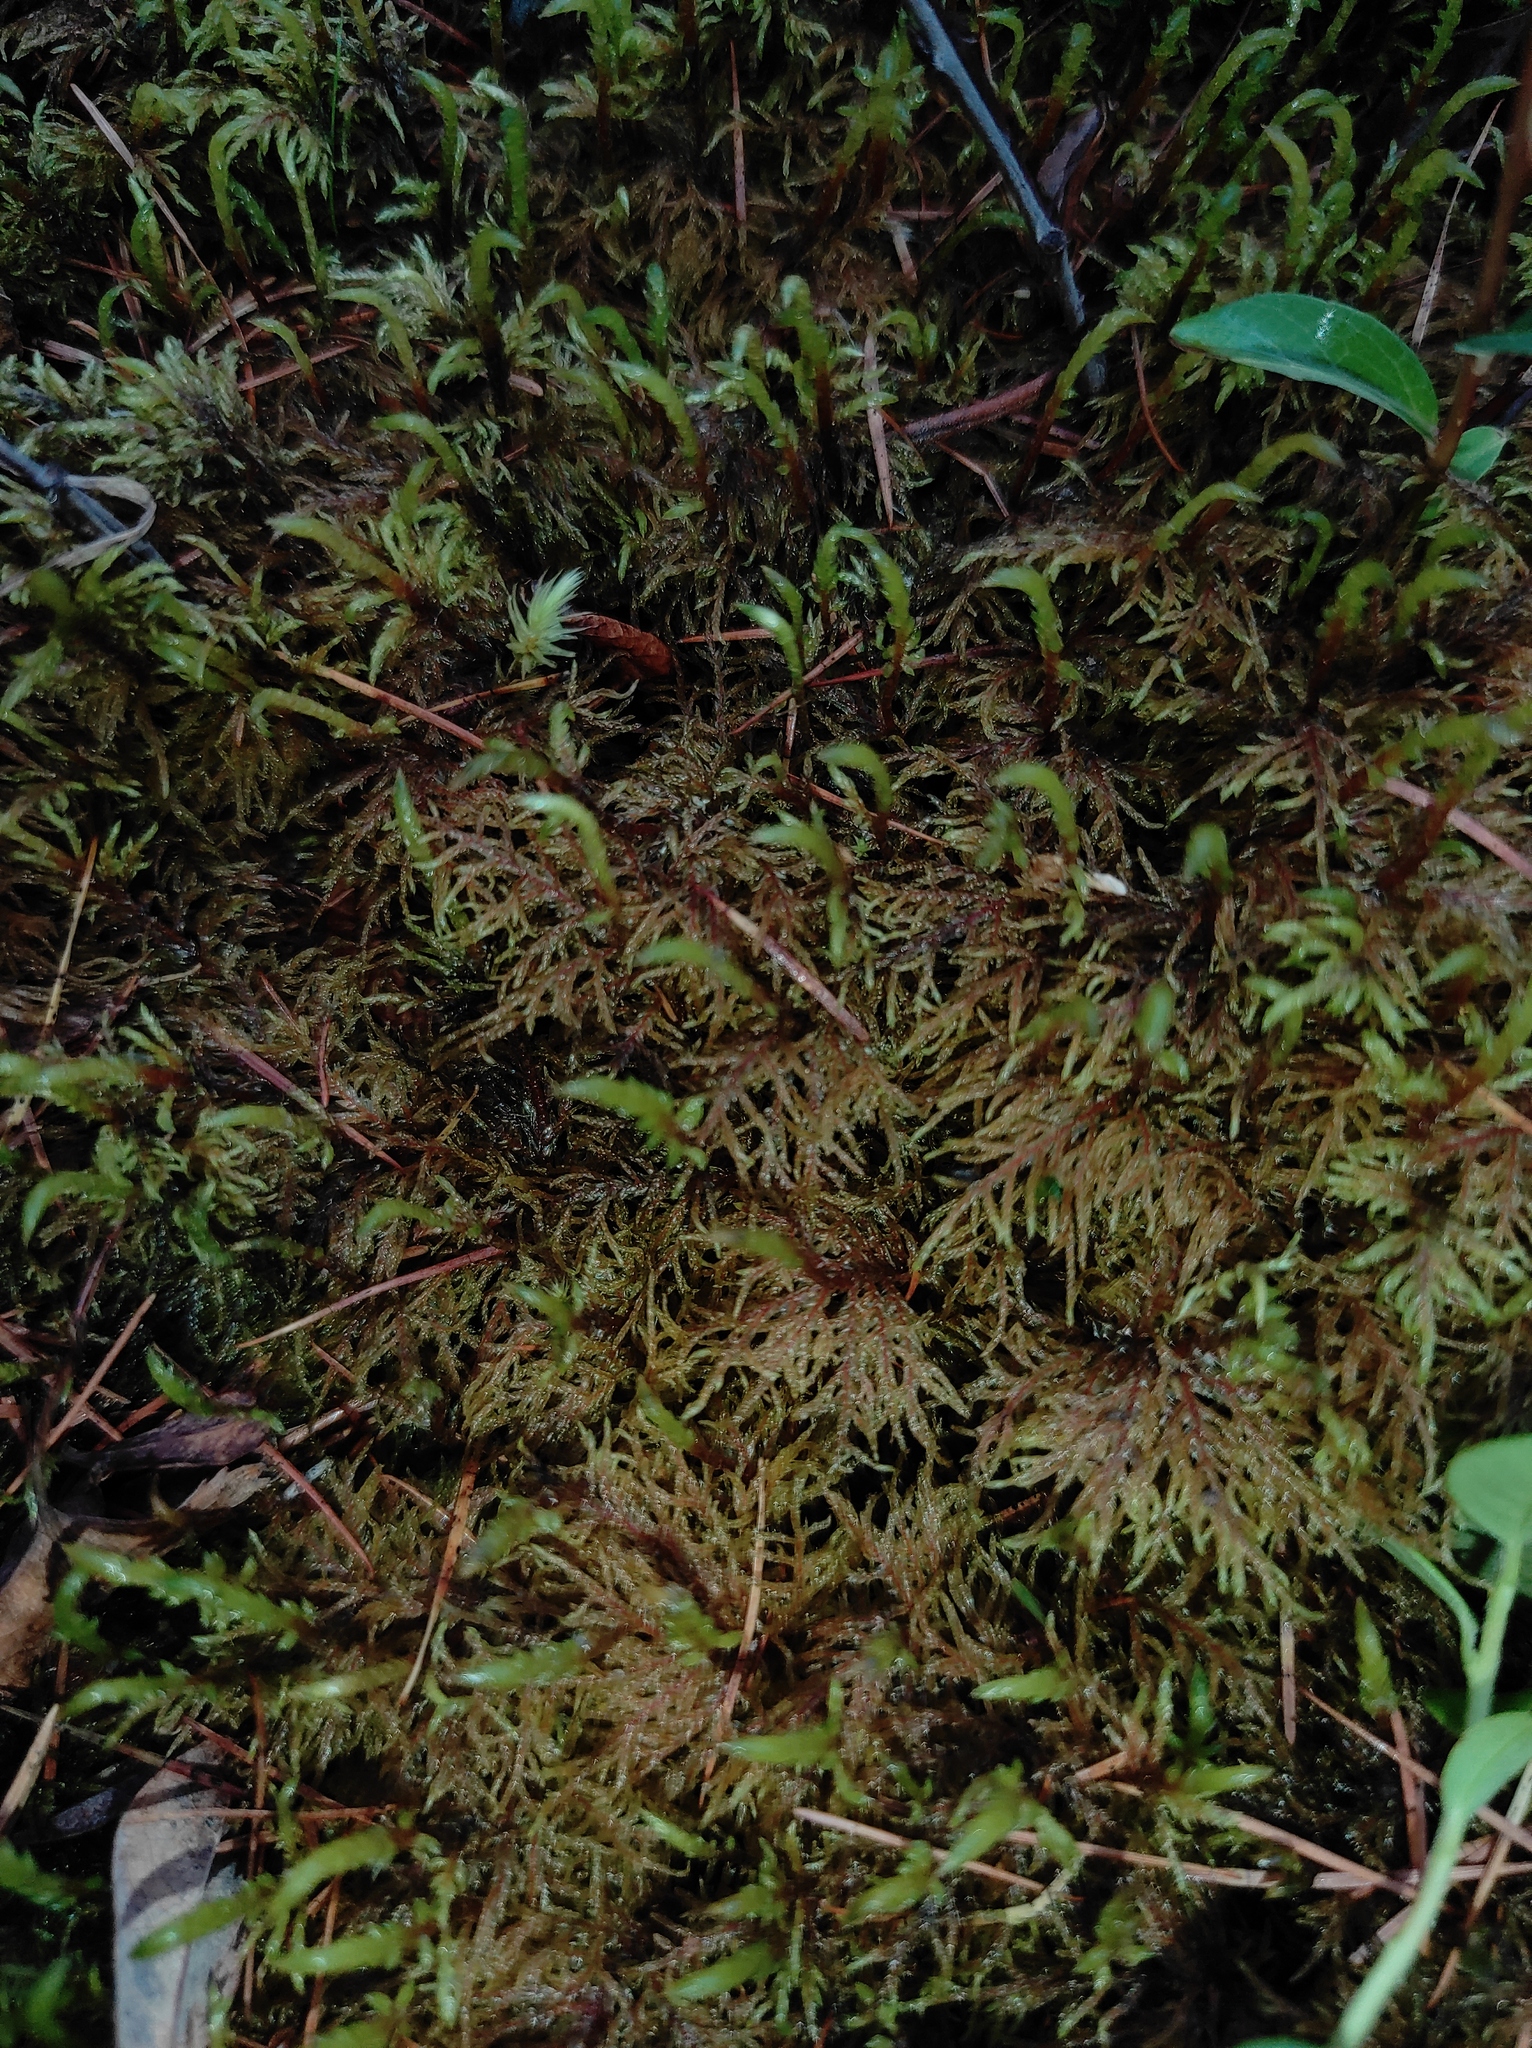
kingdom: Plantae
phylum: Bryophyta
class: Bryopsida
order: Hypnales
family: Hylocomiaceae
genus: Hylocomium
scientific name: Hylocomium splendens
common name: Stairstep moss
